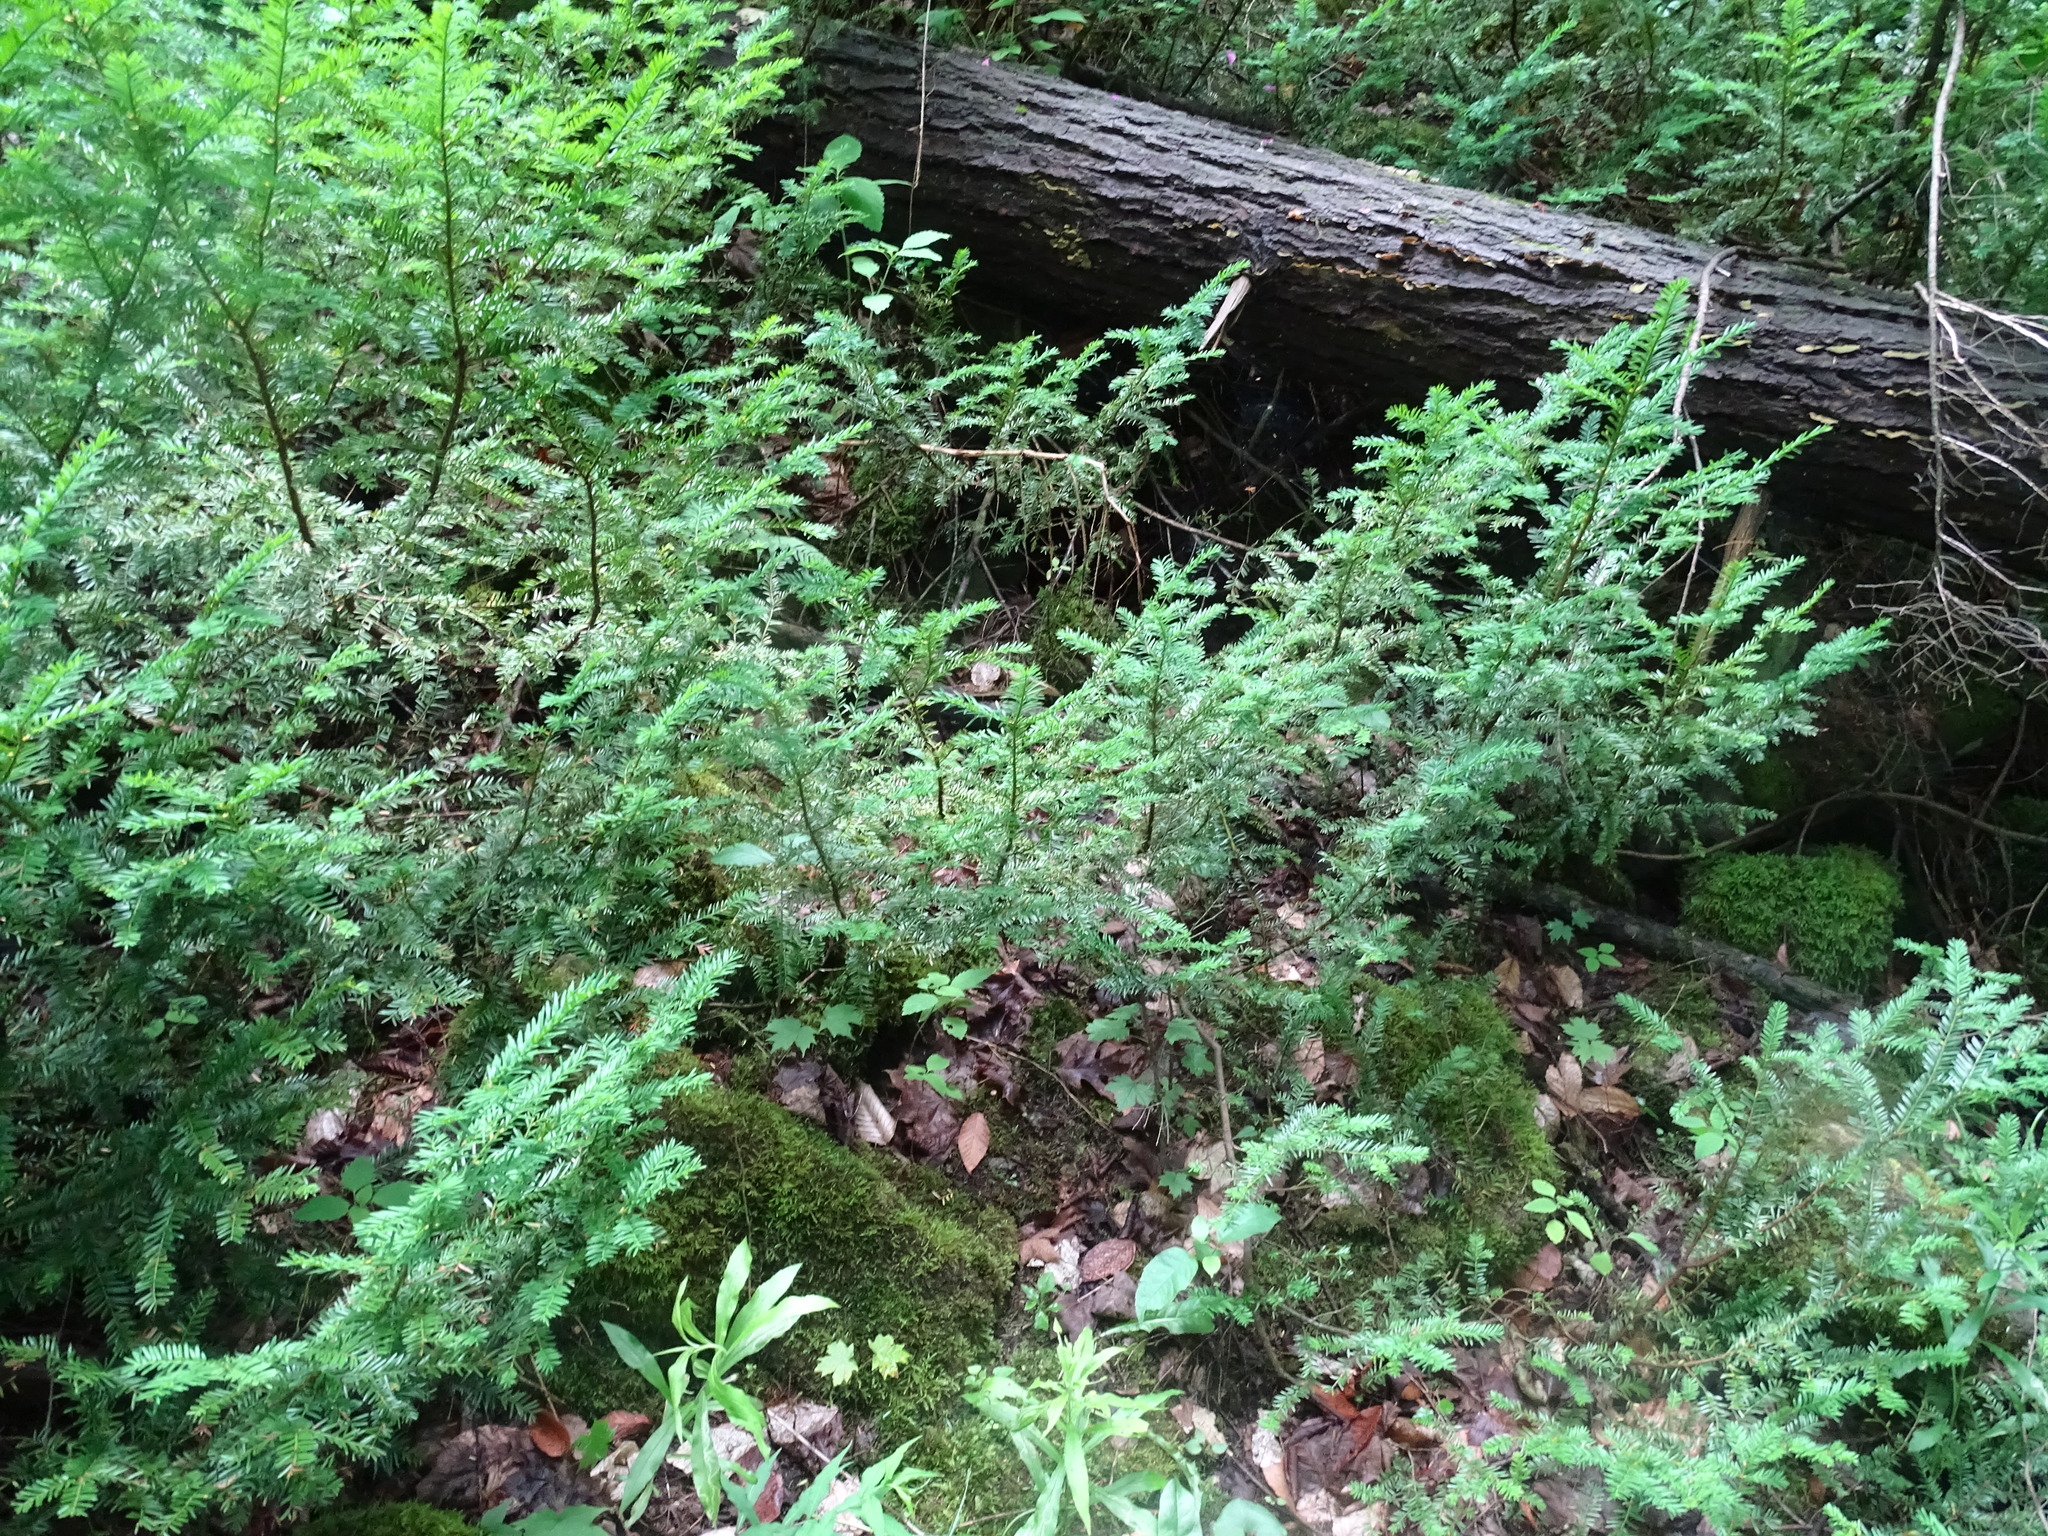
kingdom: Plantae
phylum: Tracheophyta
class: Pinopsida
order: Pinales
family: Taxaceae
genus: Taxus
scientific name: Taxus canadensis
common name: American yew
